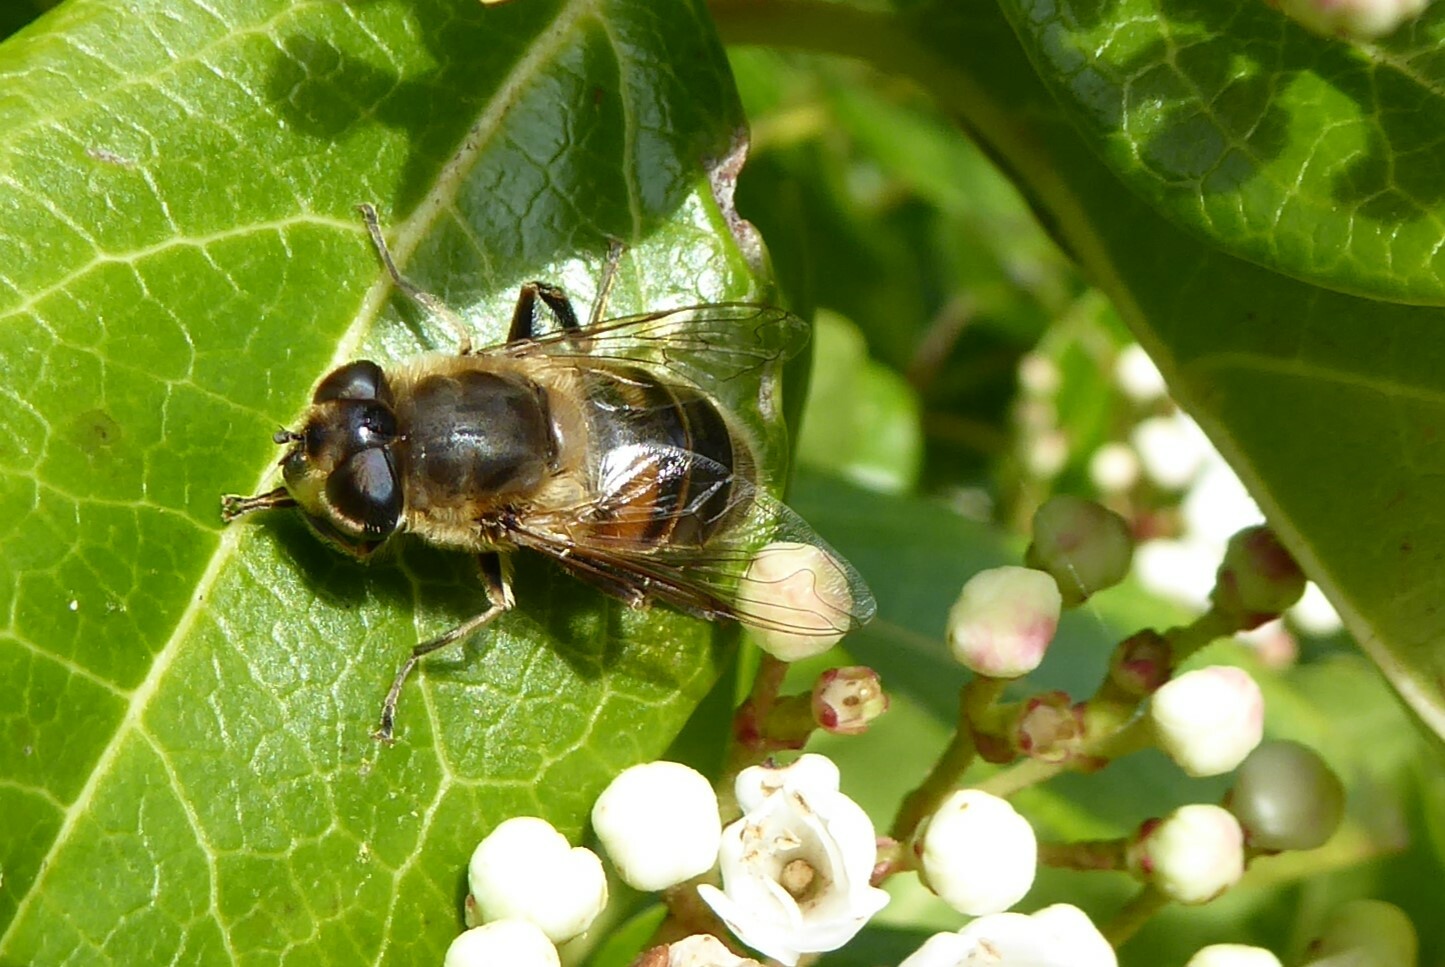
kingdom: Animalia
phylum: Arthropoda
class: Insecta
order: Diptera
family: Syrphidae
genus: Eristalis
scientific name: Eristalis tenax
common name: Drone fly
